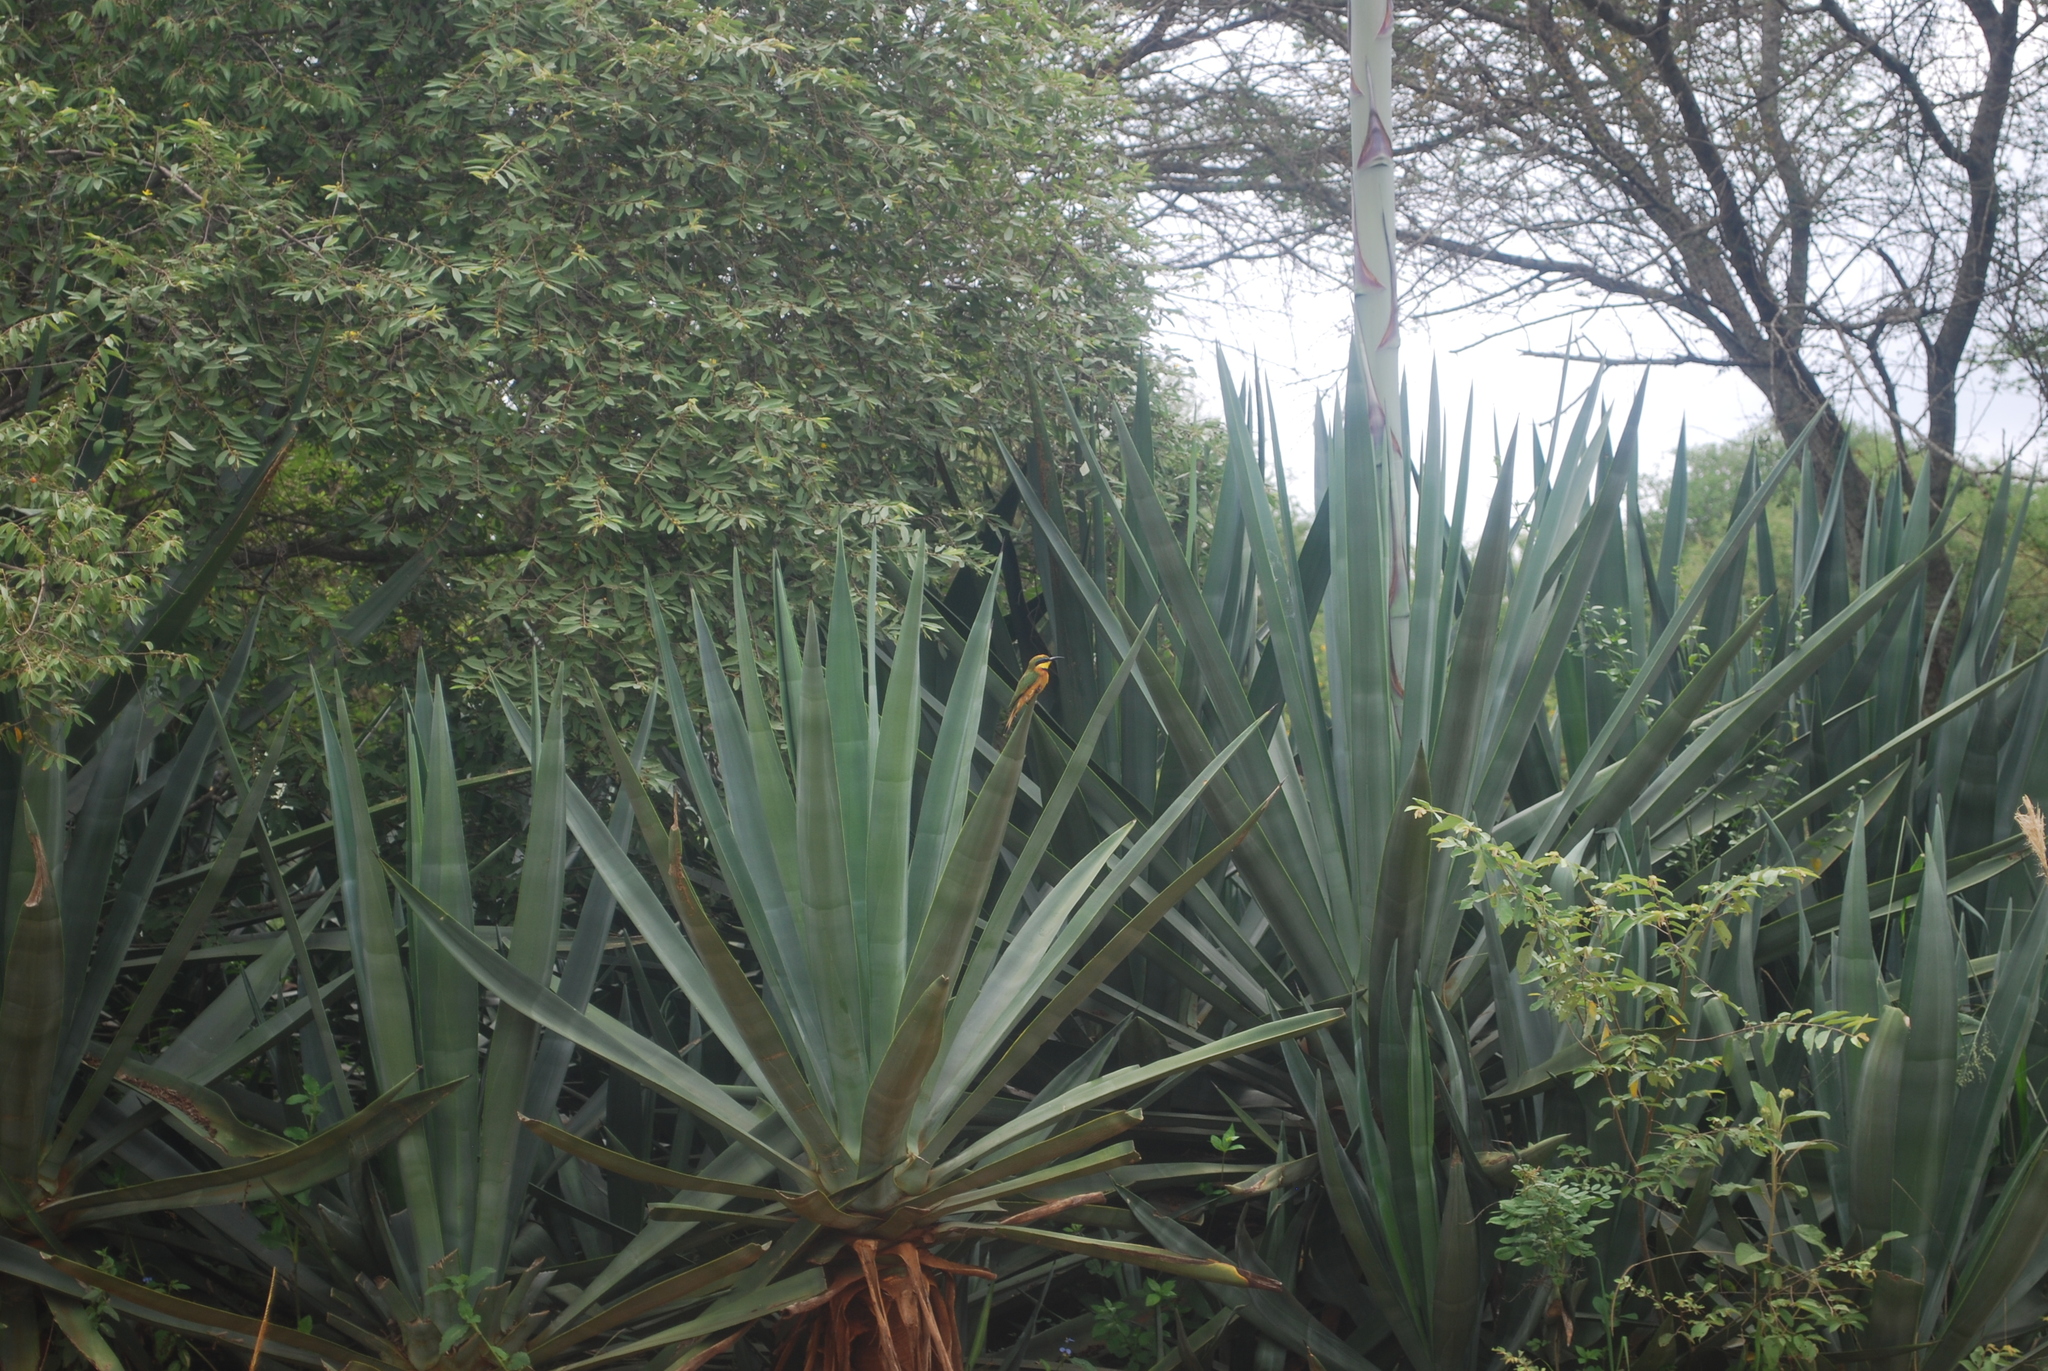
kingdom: Animalia
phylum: Chordata
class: Aves
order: Coraciiformes
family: Meropidae
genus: Merops
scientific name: Merops pusillus
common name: Little bee-eater
